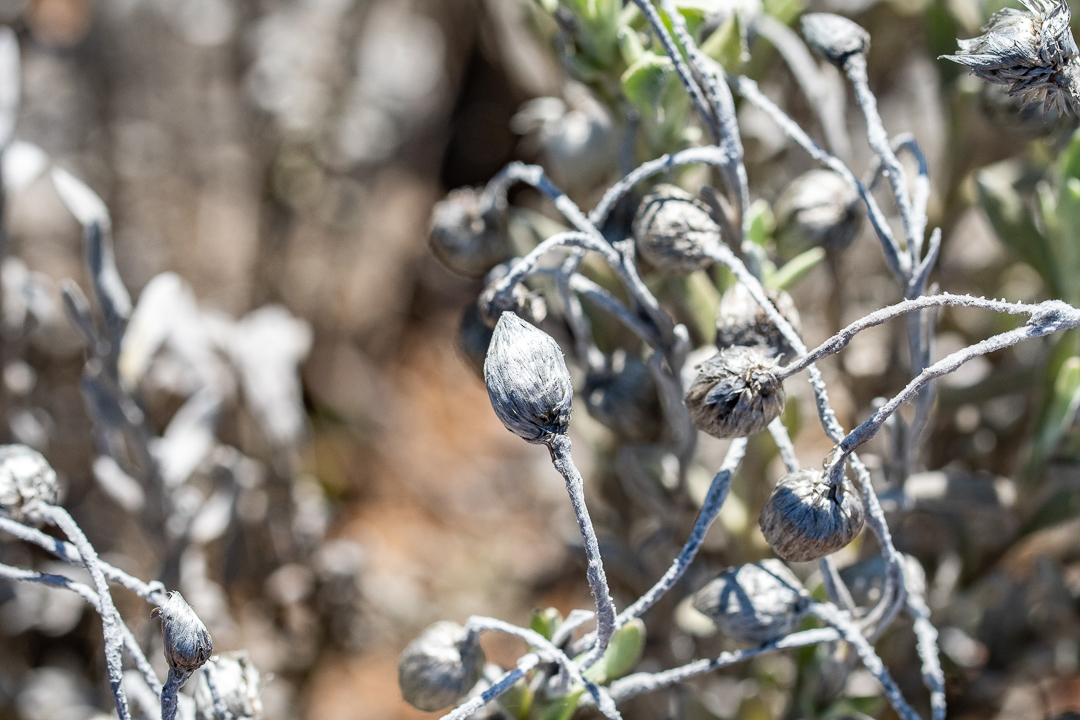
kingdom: Plantae
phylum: Tracheophyta
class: Magnoliopsida
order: Asterales
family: Asteraceae
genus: Syncarpha
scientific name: Syncarpha vestita
